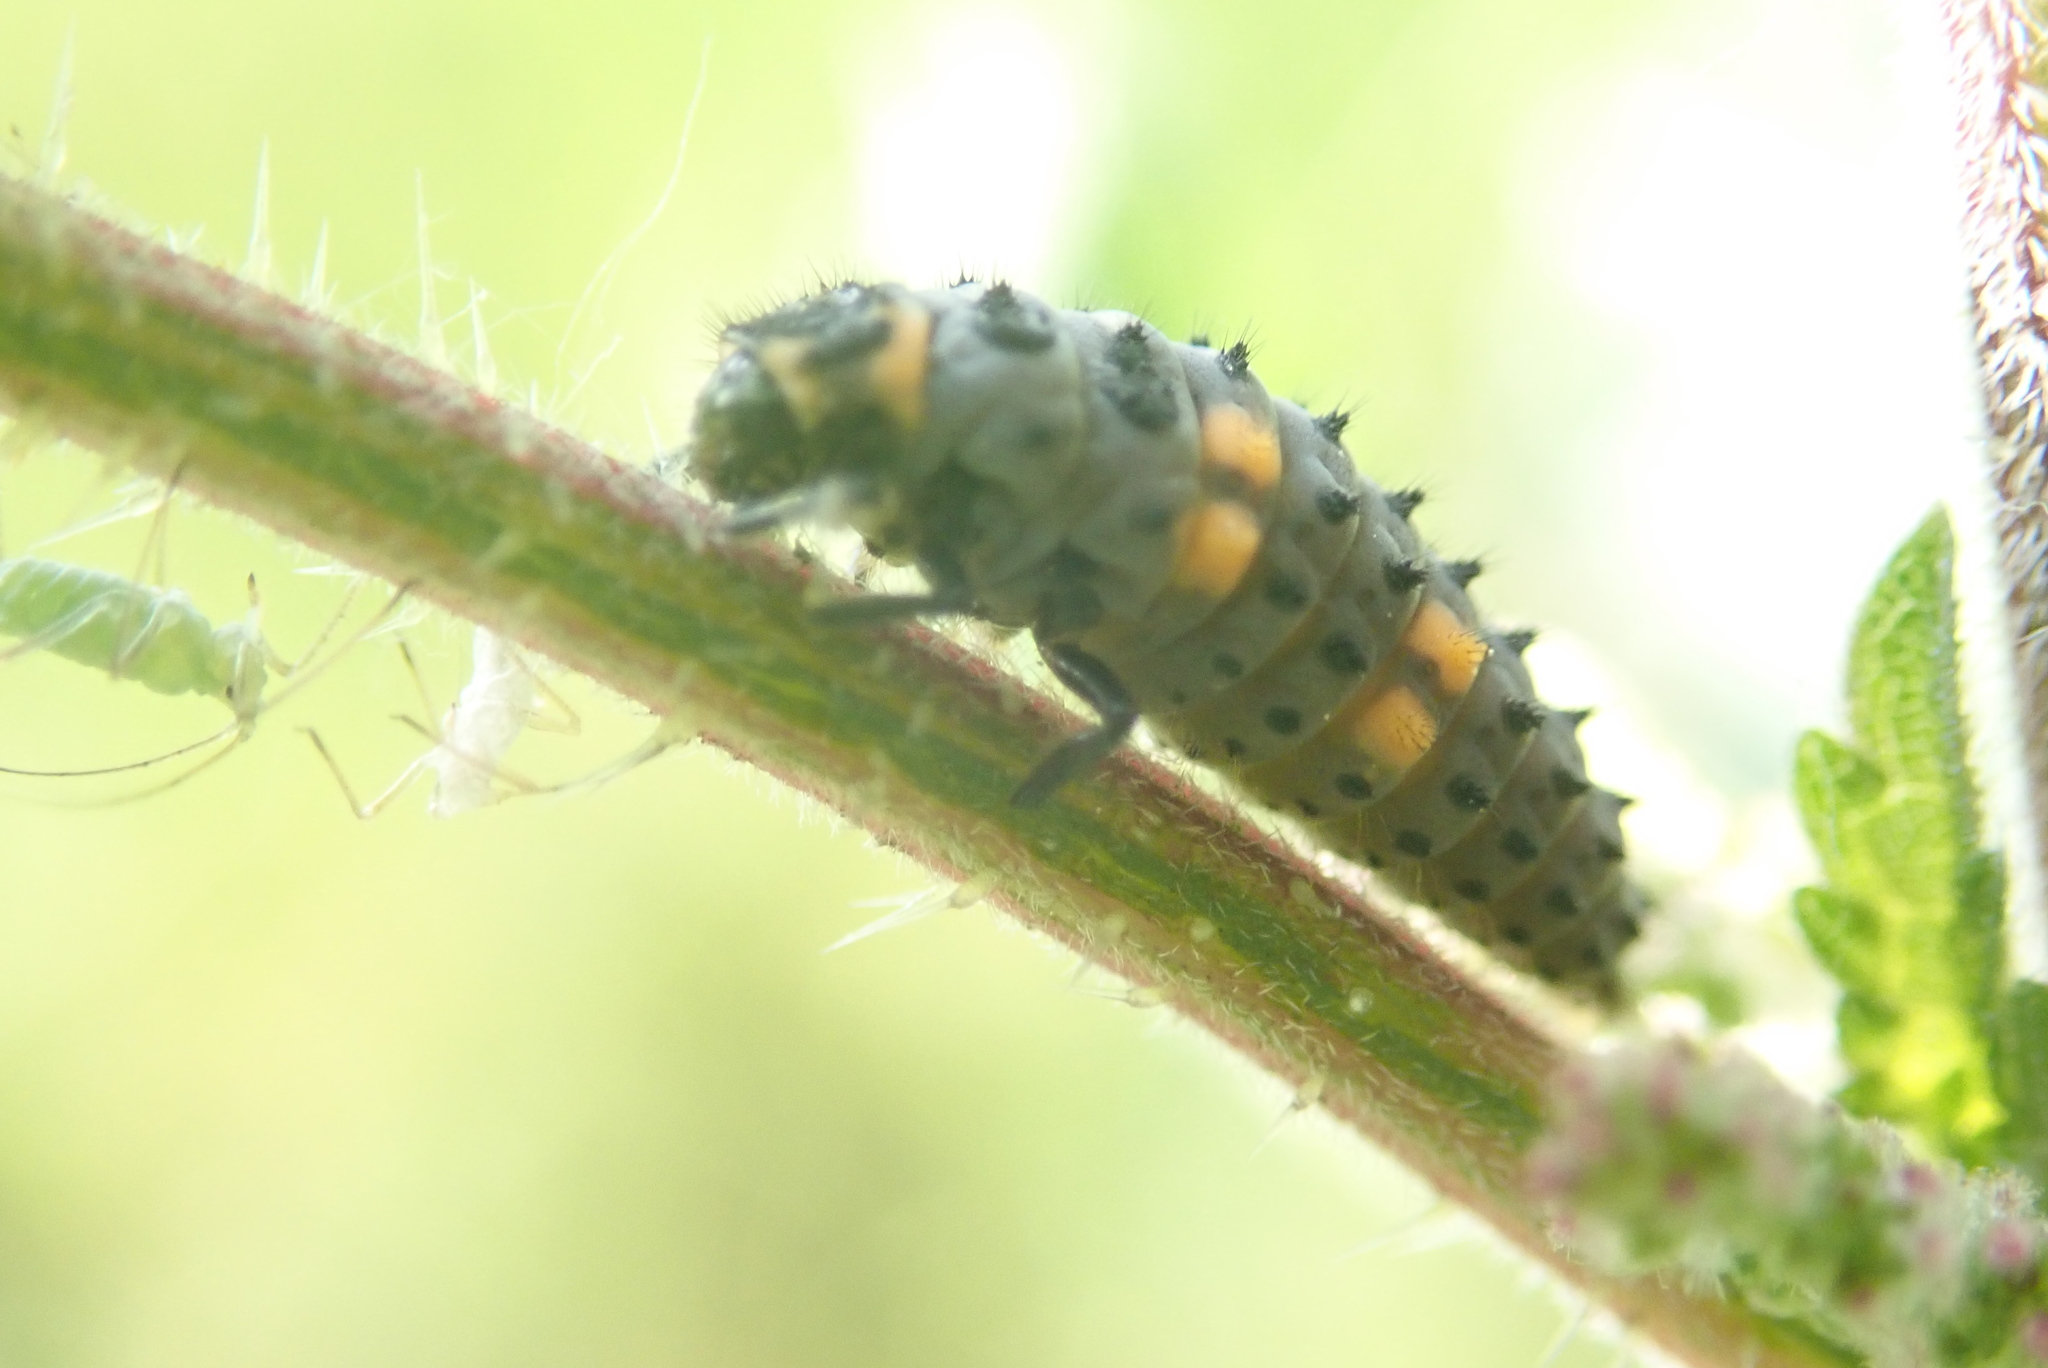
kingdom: Animalia
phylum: Arthropoda
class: Insecta
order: Coleoptera
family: Coccinellidae
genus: Coccinella
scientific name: Coccinella septempunctata
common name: Sevenspotted lady beetle
